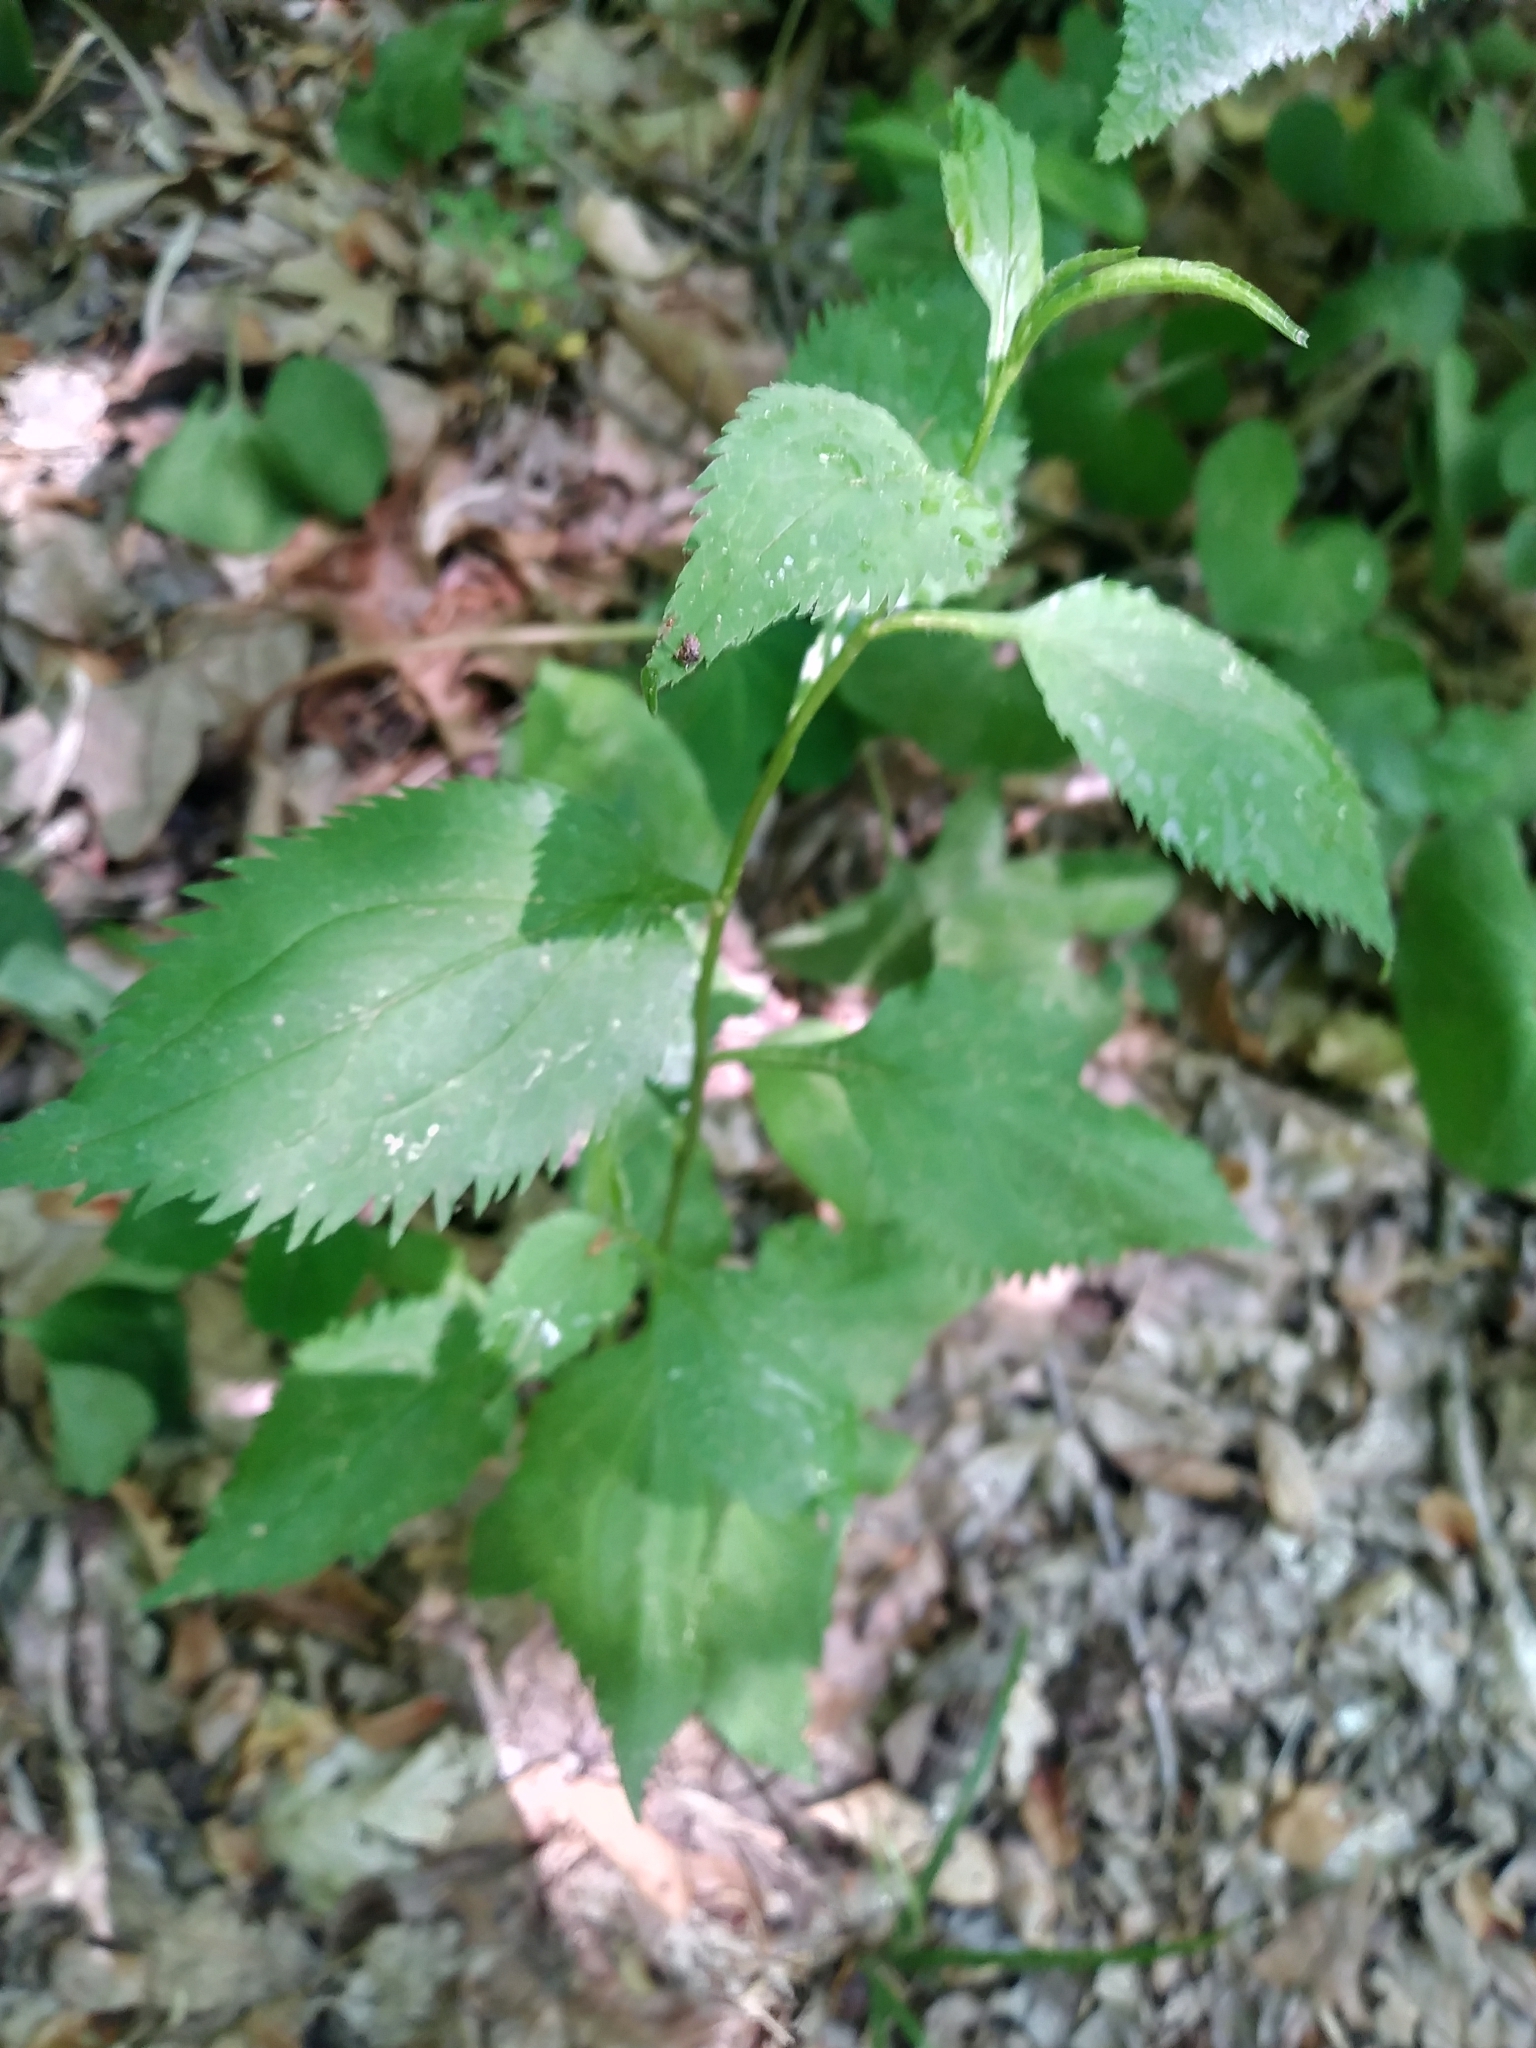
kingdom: Plantae
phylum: Tracheophyta
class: Magnoliopsida
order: Asterales
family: Asteraceae
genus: Solidago
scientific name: Solidago flexicaulis
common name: Zig-zag goldenrod
